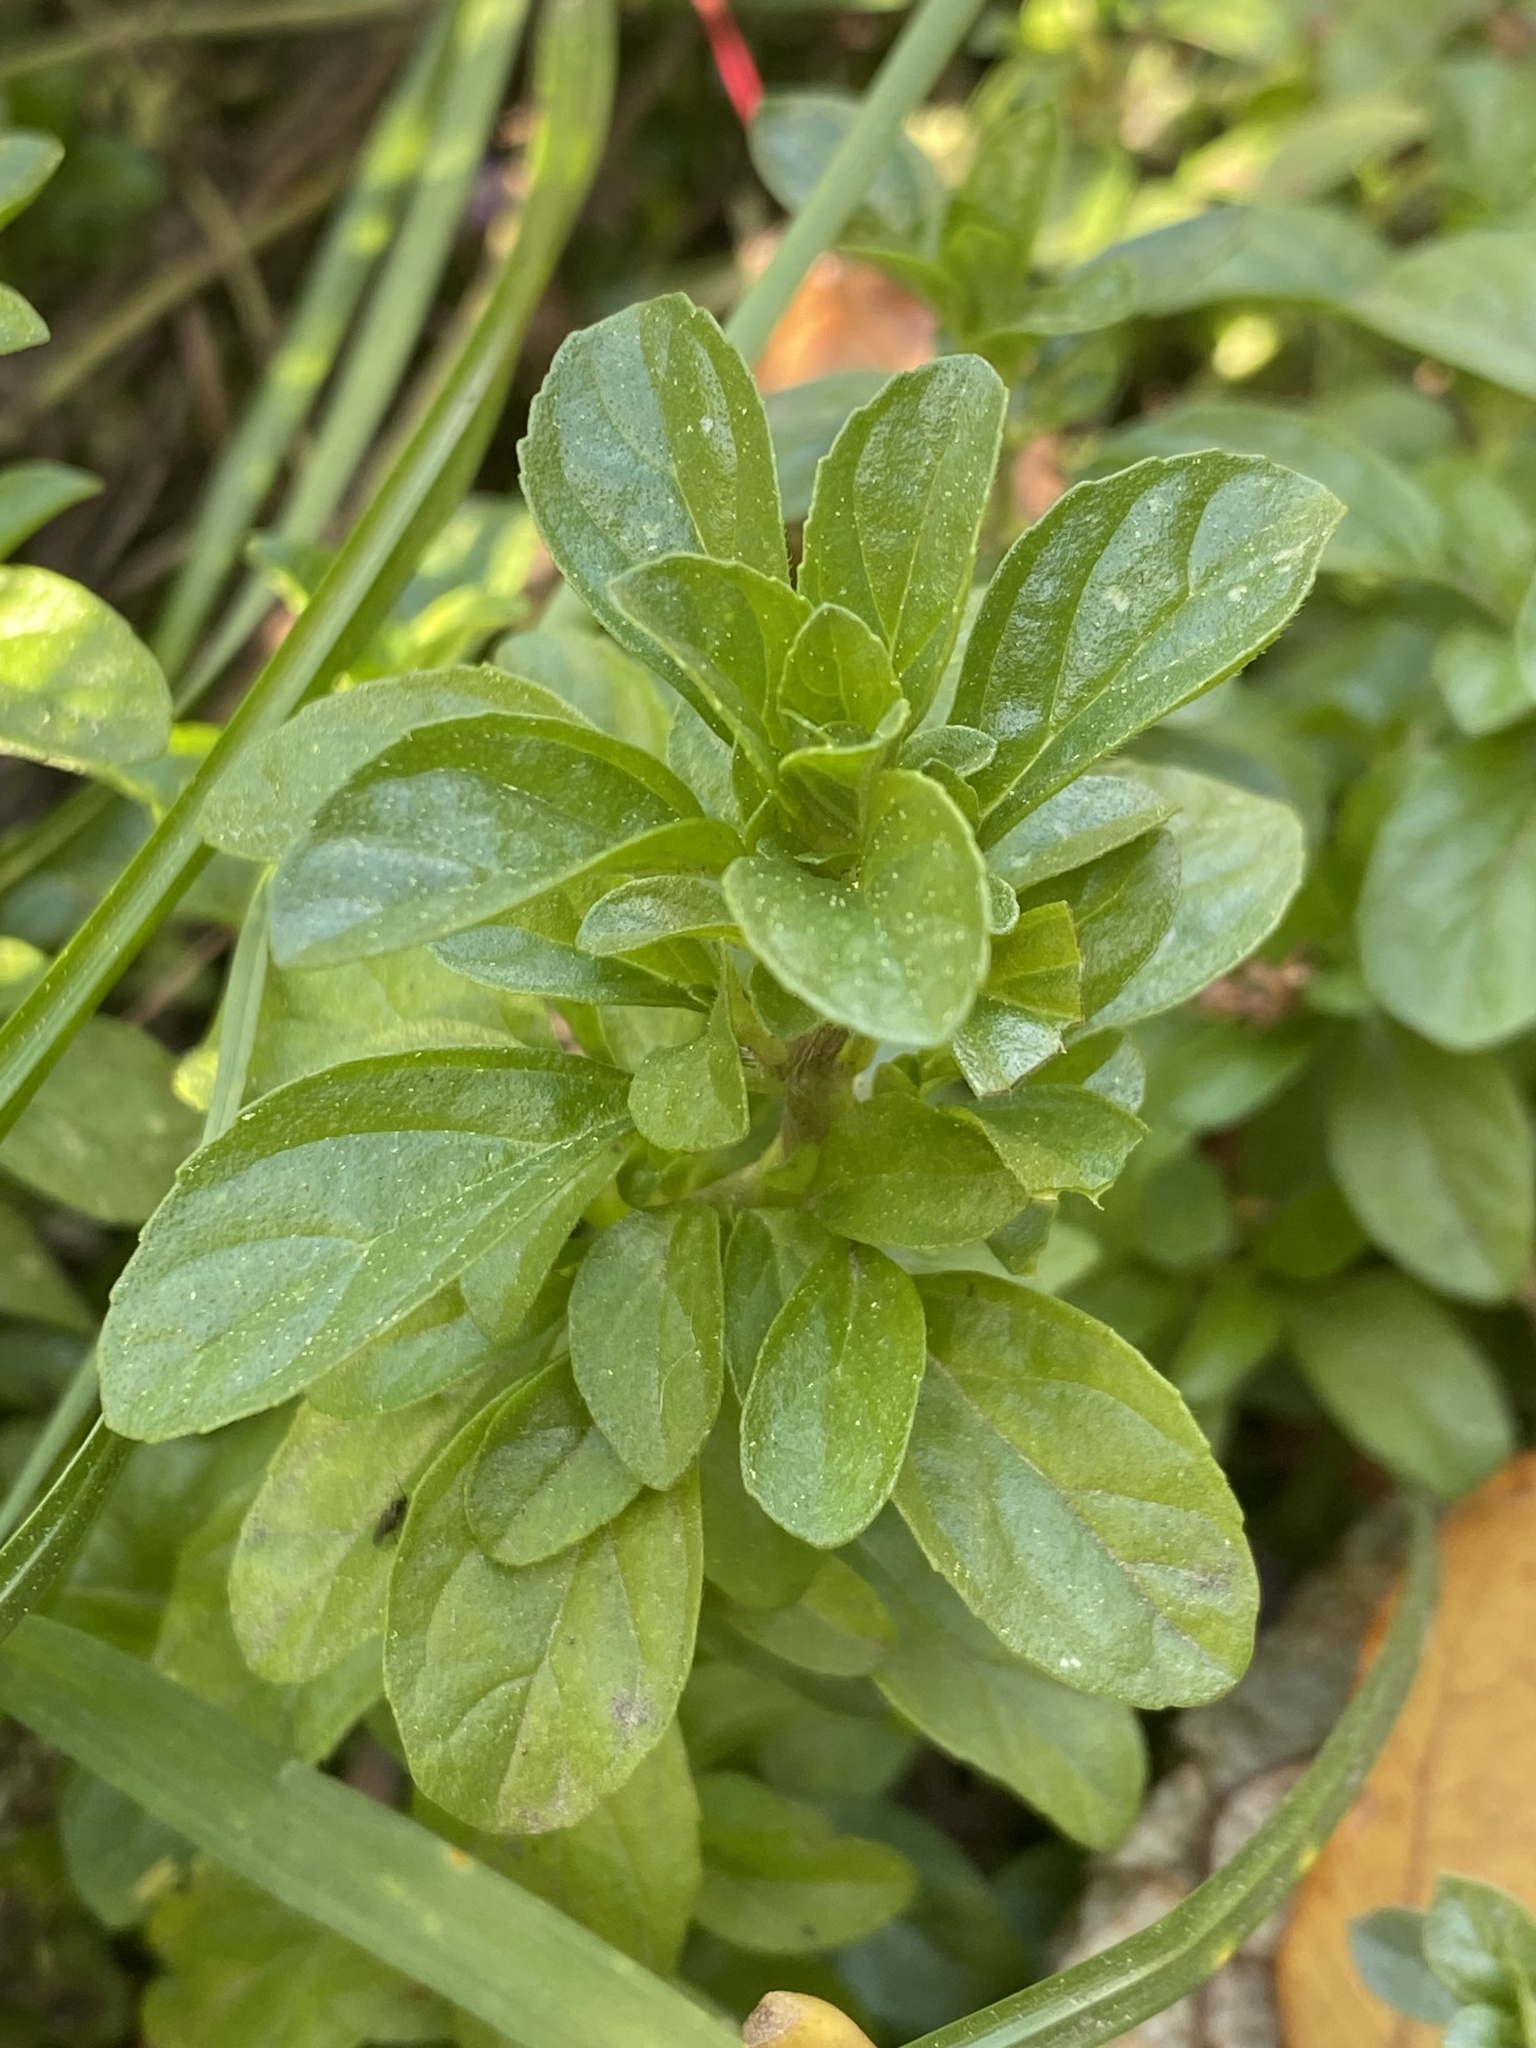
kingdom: Plantae
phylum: Tracheophyta
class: Magnoliopsida
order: Lamiales
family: Lamiaceae
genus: Mentha
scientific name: Mentha pulegium
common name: Pennyroyal
